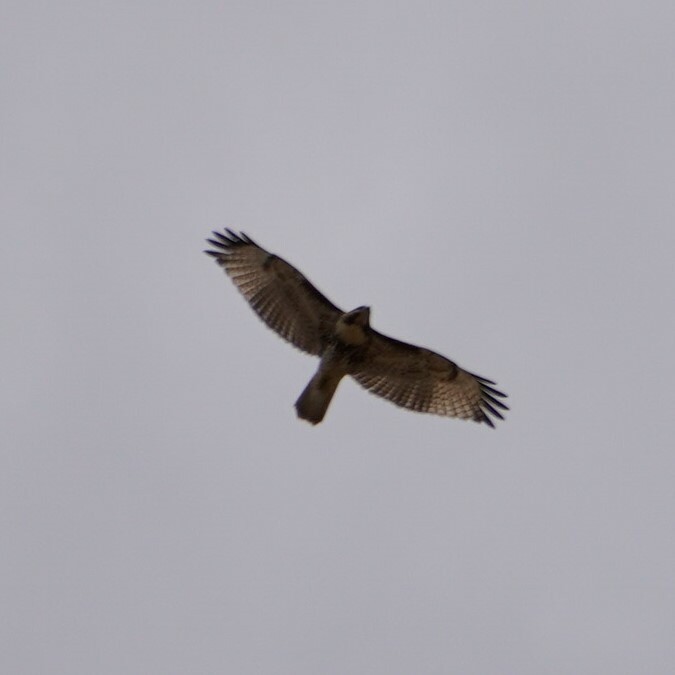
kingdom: Animalia
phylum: Chordata
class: Aves
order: Accipitriformes
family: Accipitridae
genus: Buteo
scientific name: Buteo jamaicensis
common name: Red-tailed hawk
